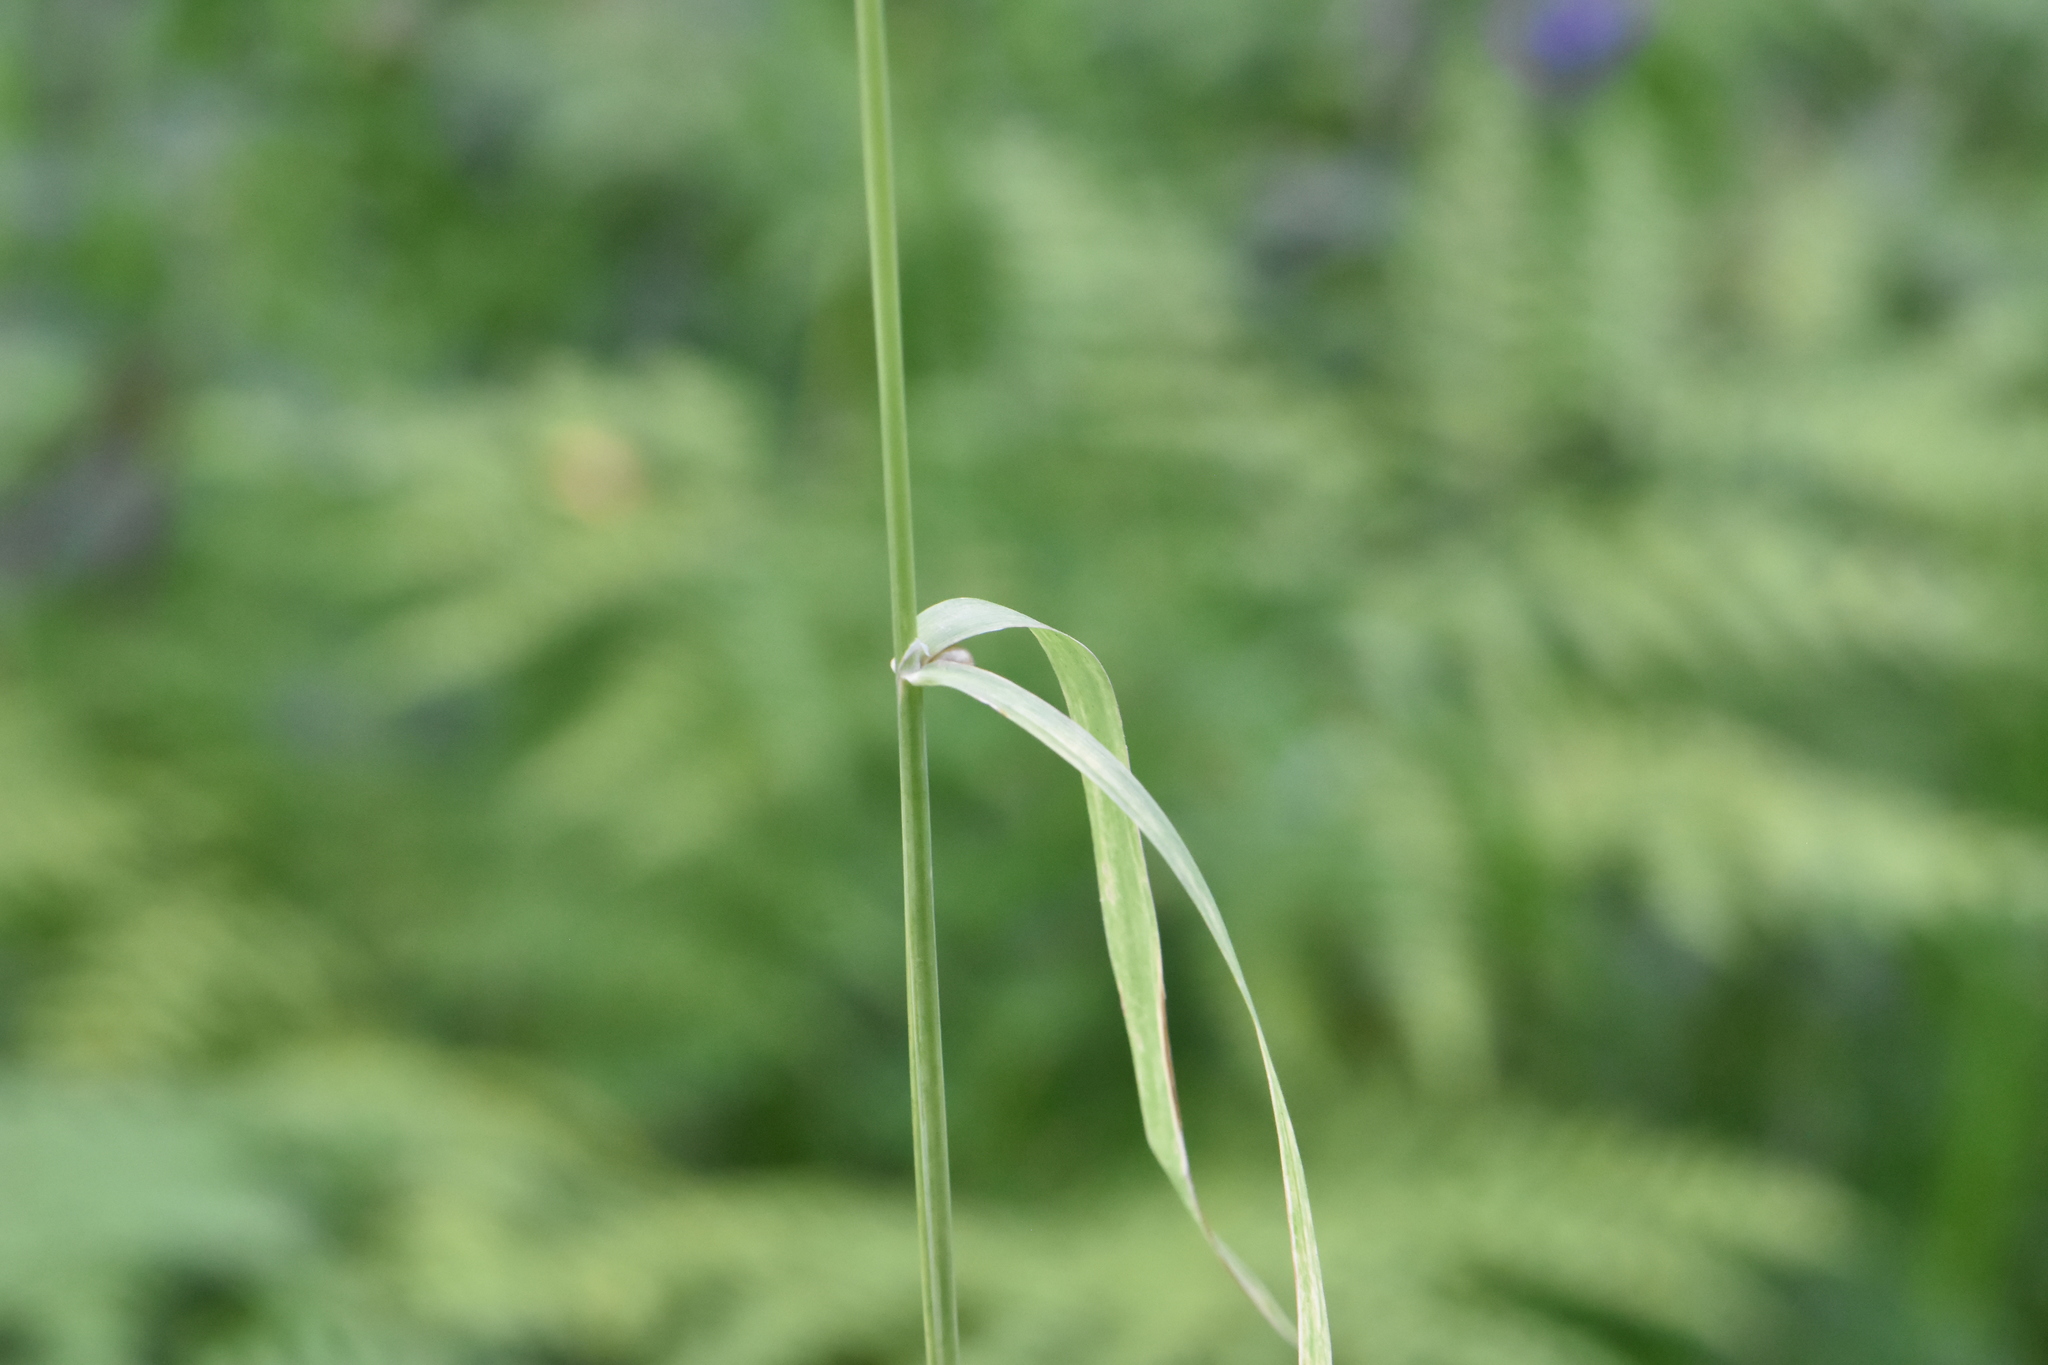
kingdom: Plantae
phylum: Tracheophyta
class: Liliopsida
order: Poales
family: Poaceae
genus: Milium
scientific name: Milium effusum
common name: Wood millet
